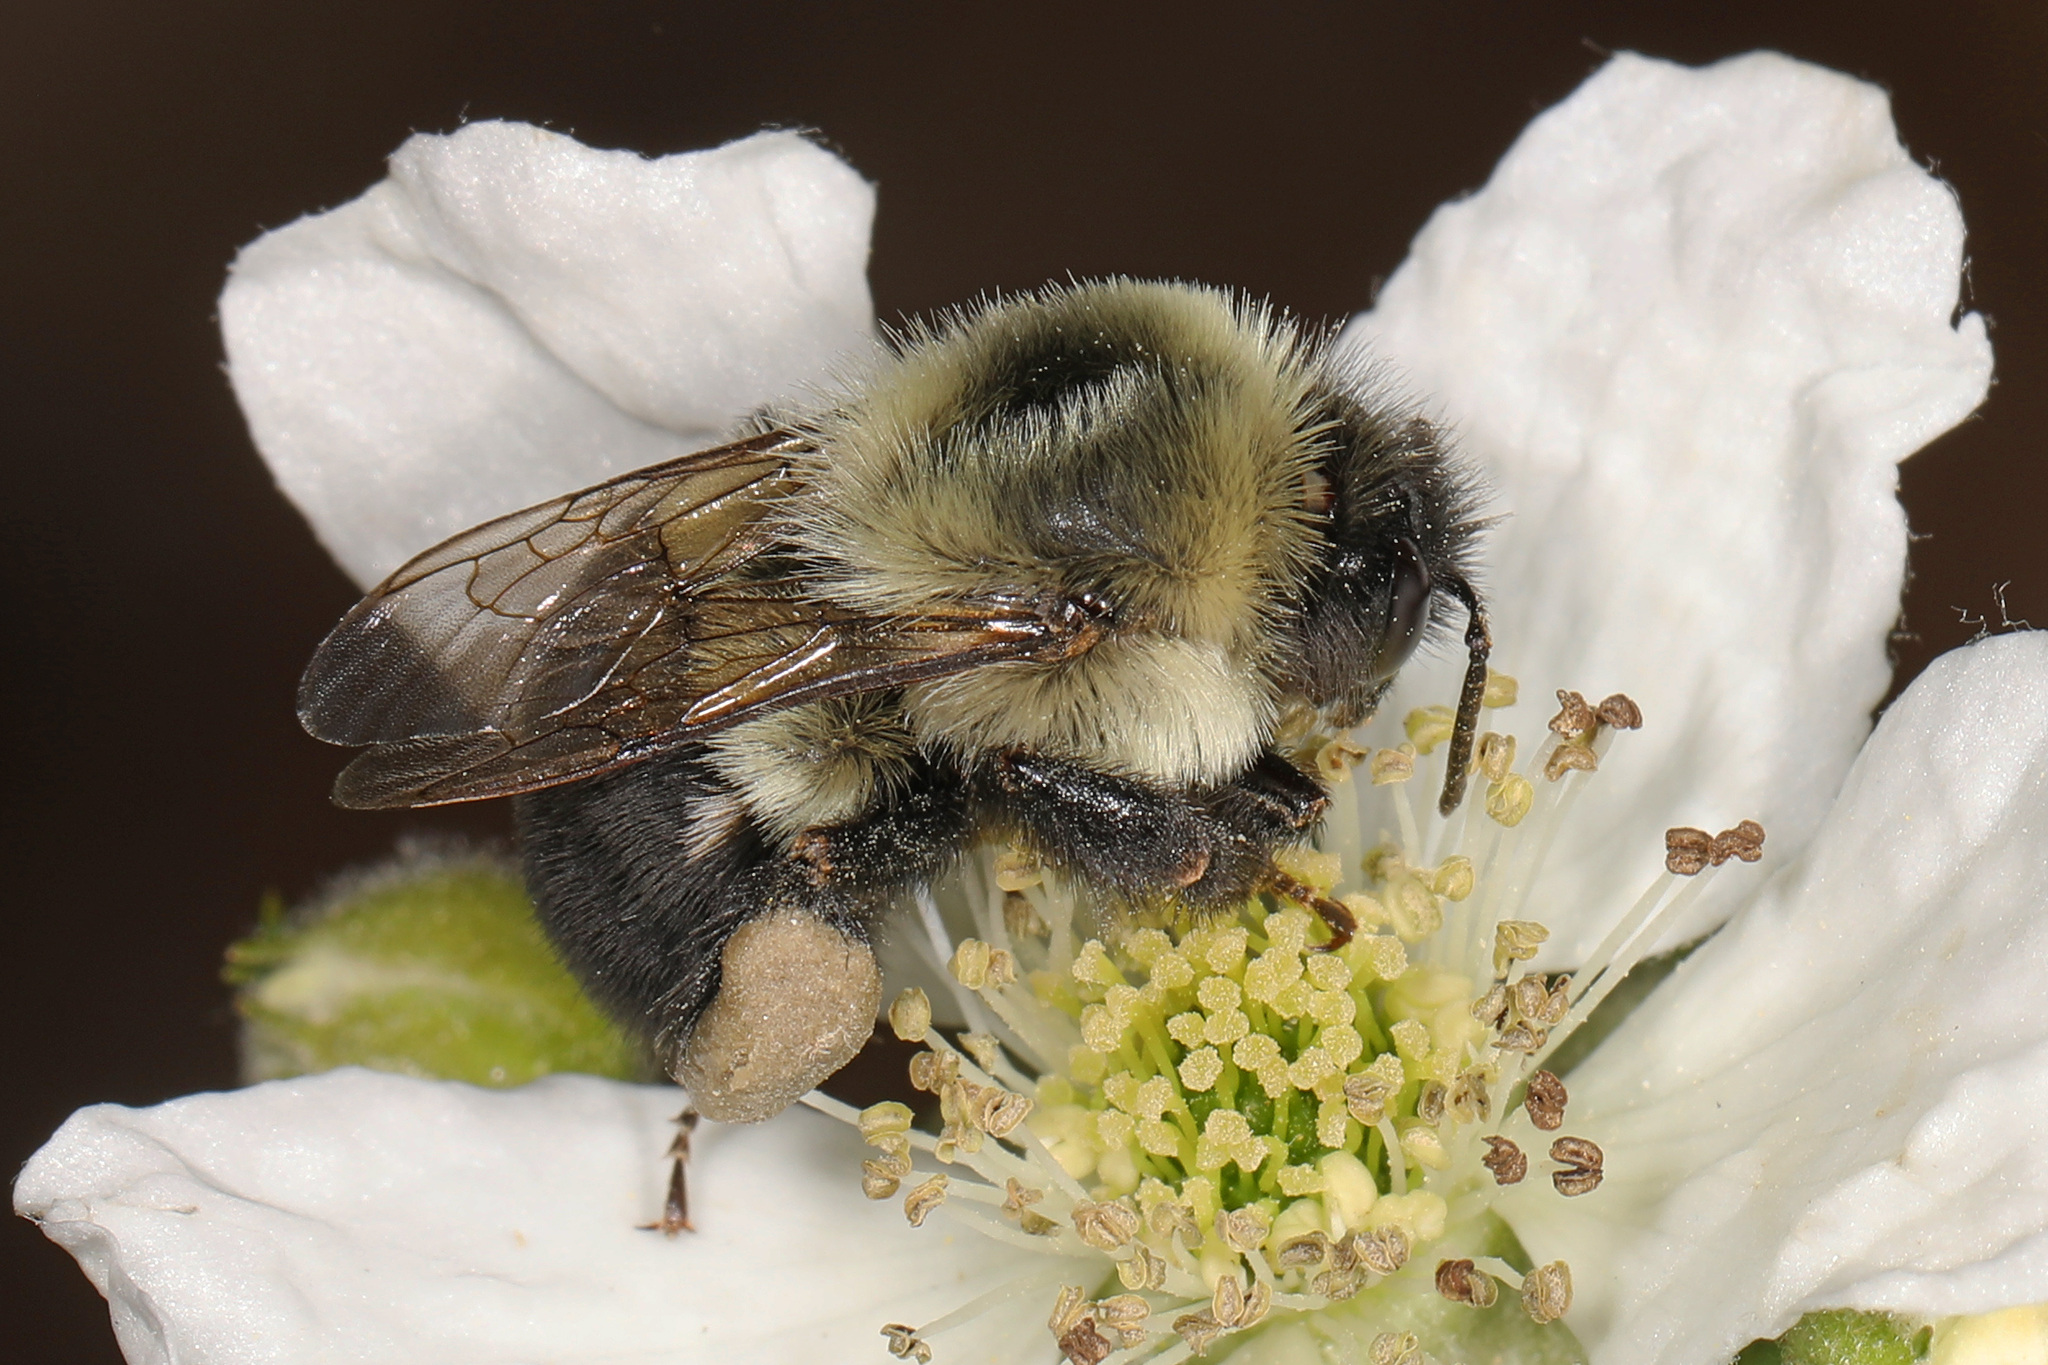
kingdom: Animalia
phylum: Arthropoda
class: Insecta
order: Hymenoptera
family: Apidae
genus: Bombus
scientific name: Bombus impatiens
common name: Common eastern bumble bee
